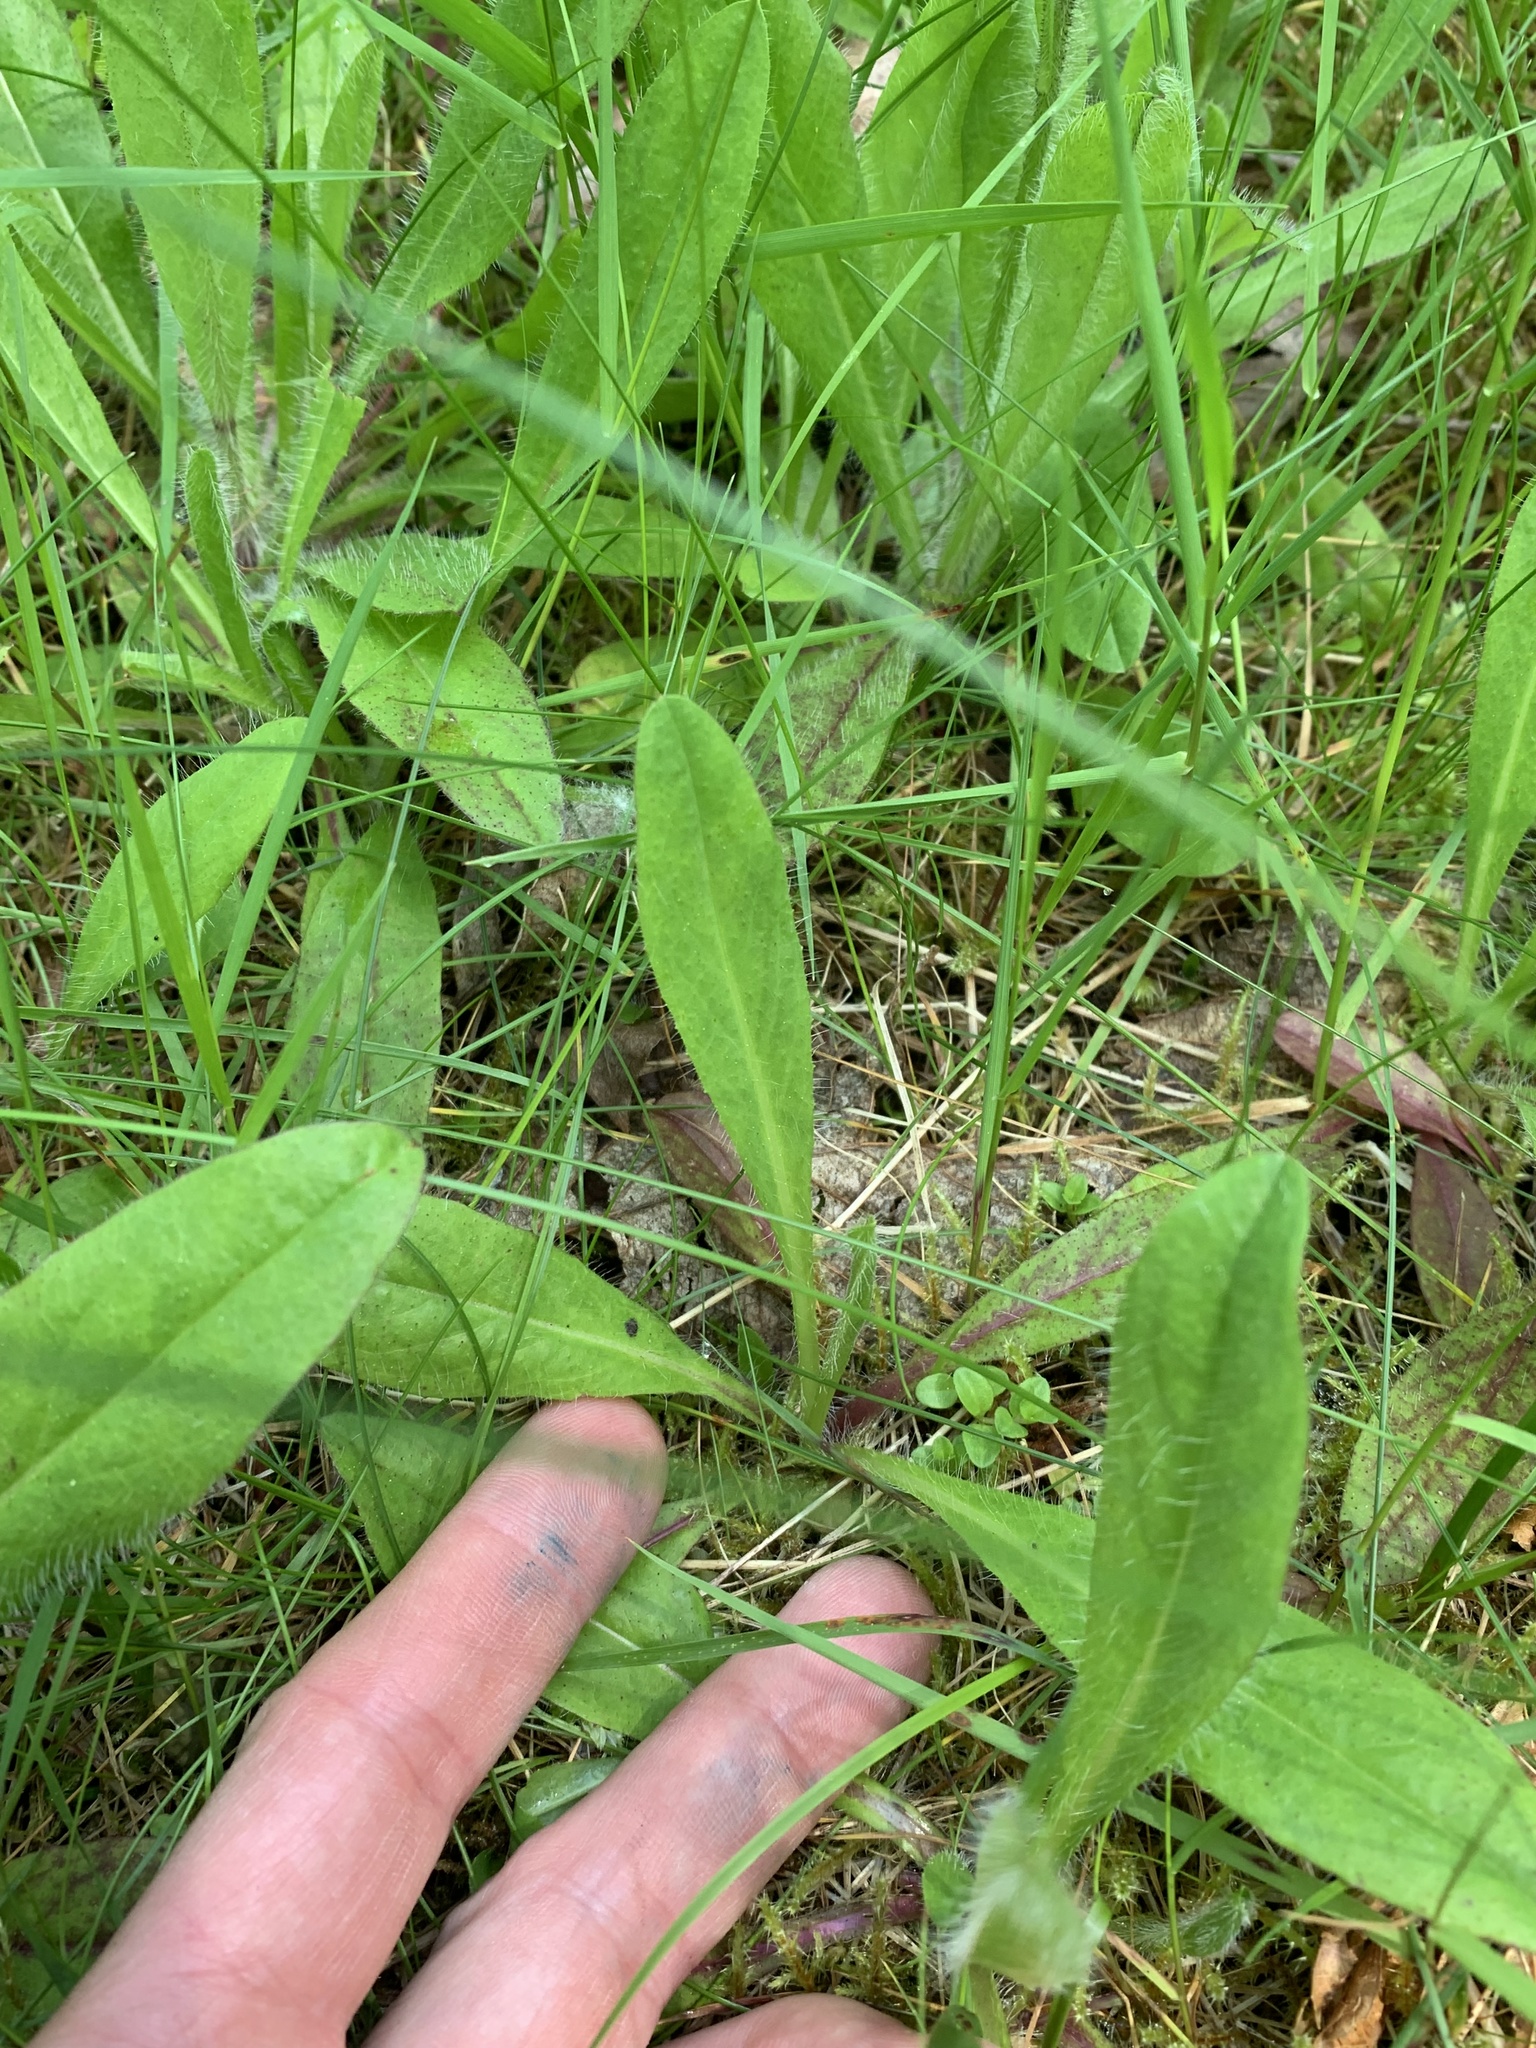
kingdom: Plantae
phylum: Tracheophyta
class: Magnoliopsida
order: Asterales
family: Asteraceae
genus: Pilosella
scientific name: Pilosella aurantiaca
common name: Fox-and-cubs
